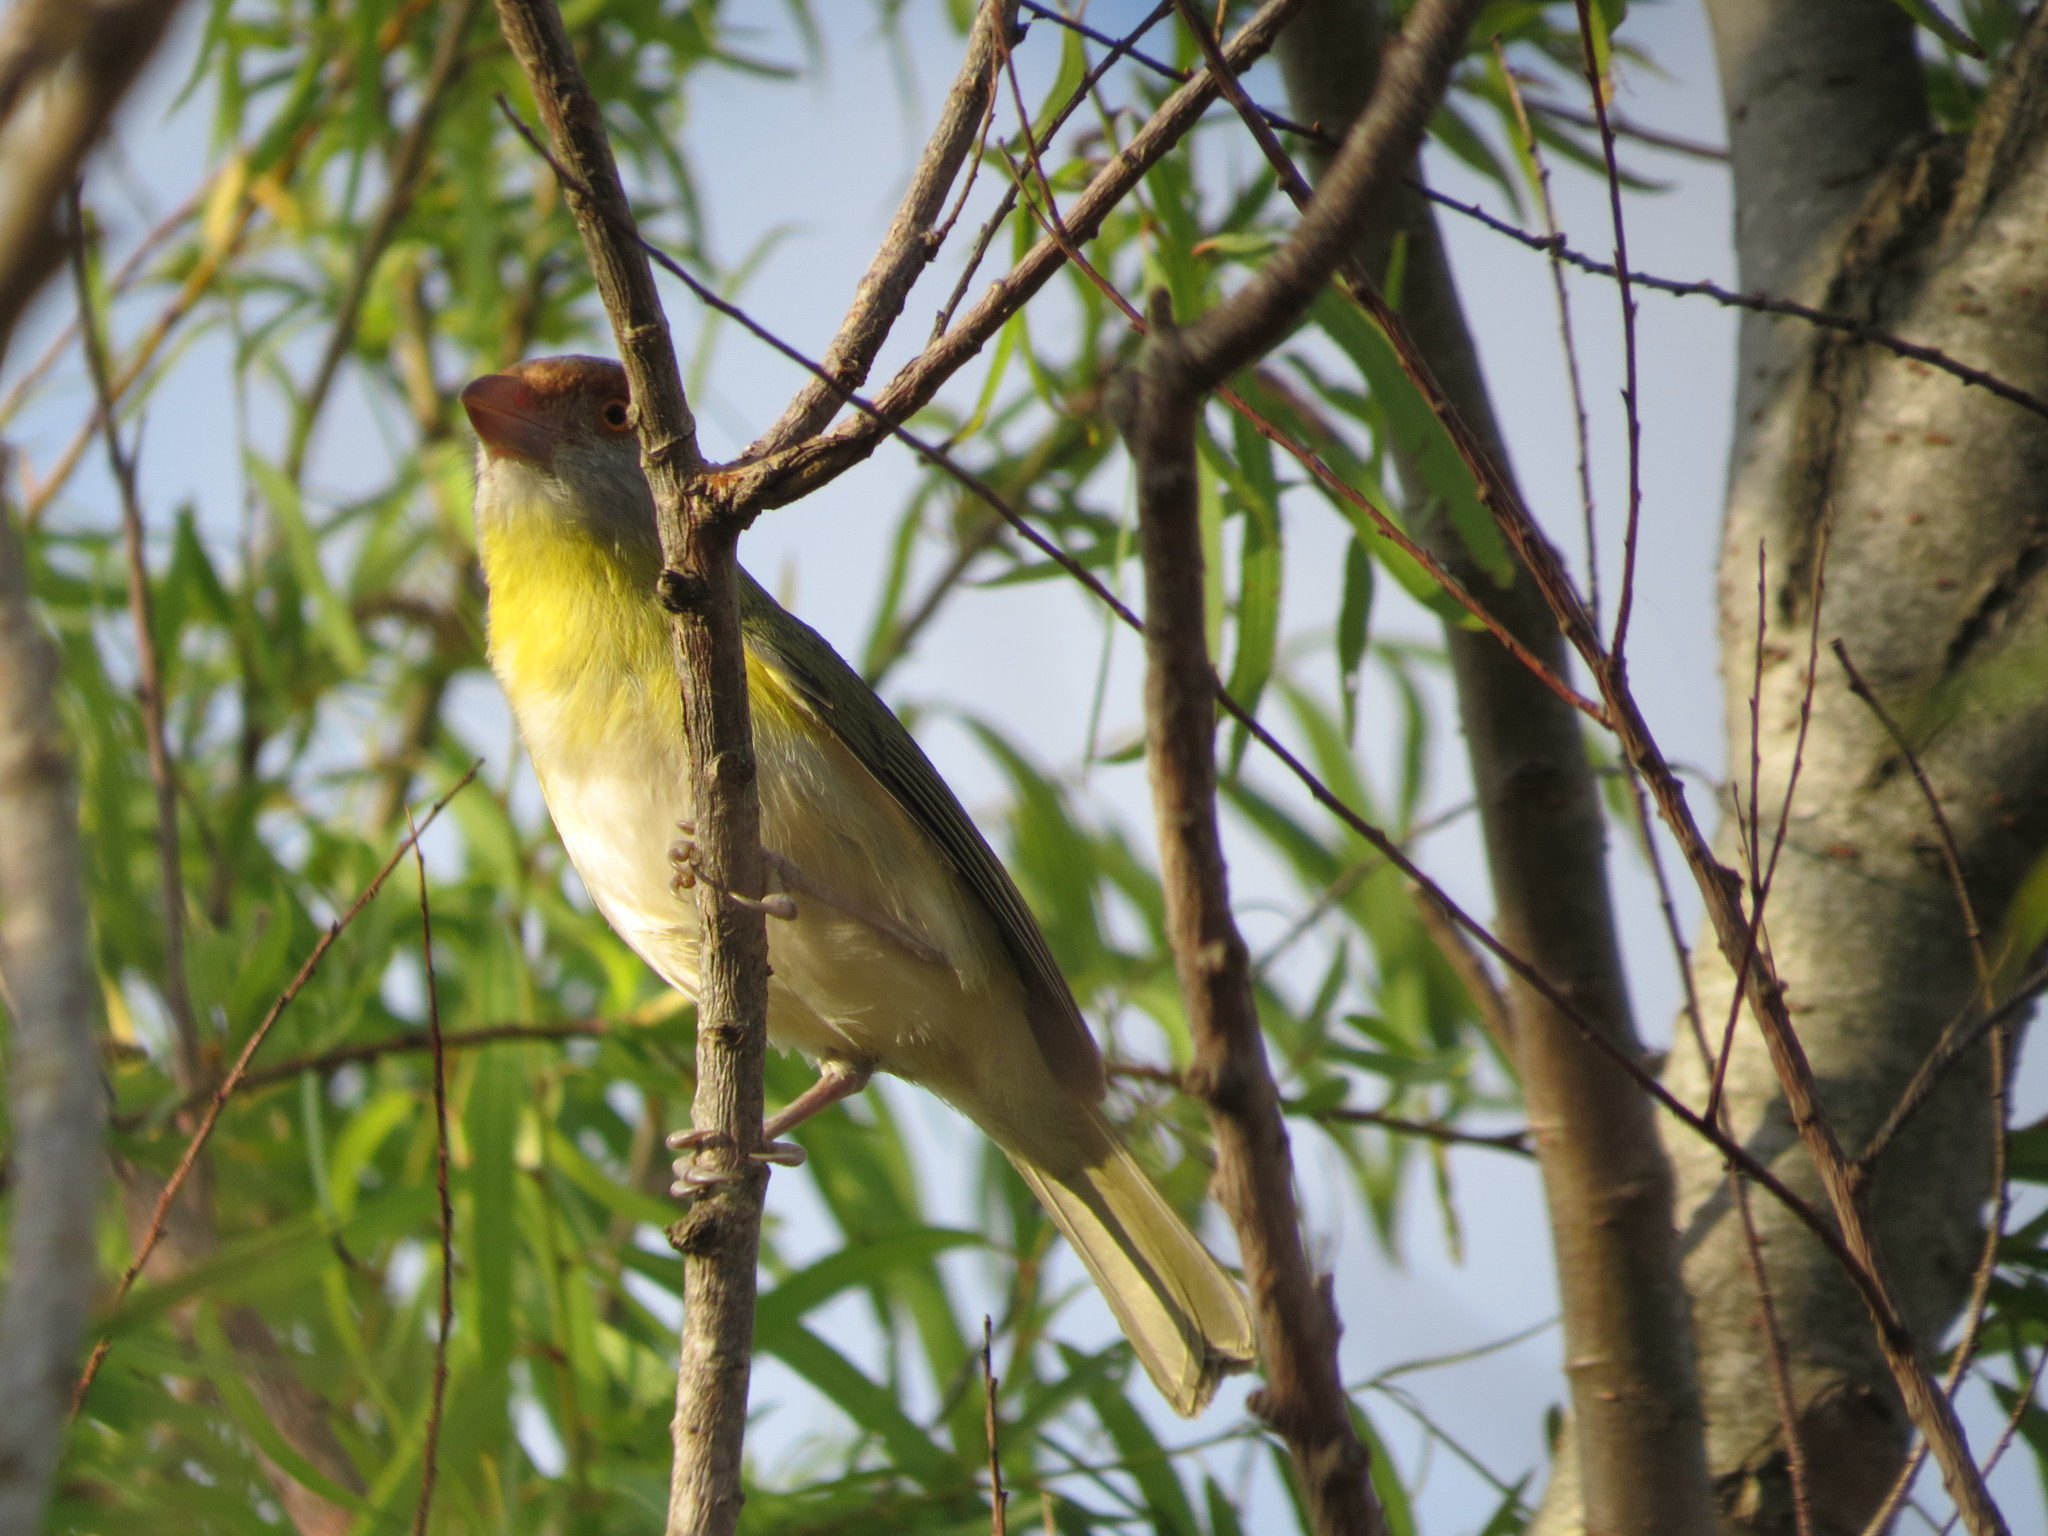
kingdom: Animalia
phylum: Chordata
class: Aves
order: Passeriformes
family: Vireonidae
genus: Cyclarhis
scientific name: Cyclarhis gujanensis
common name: Rufous-browed peppershrike
